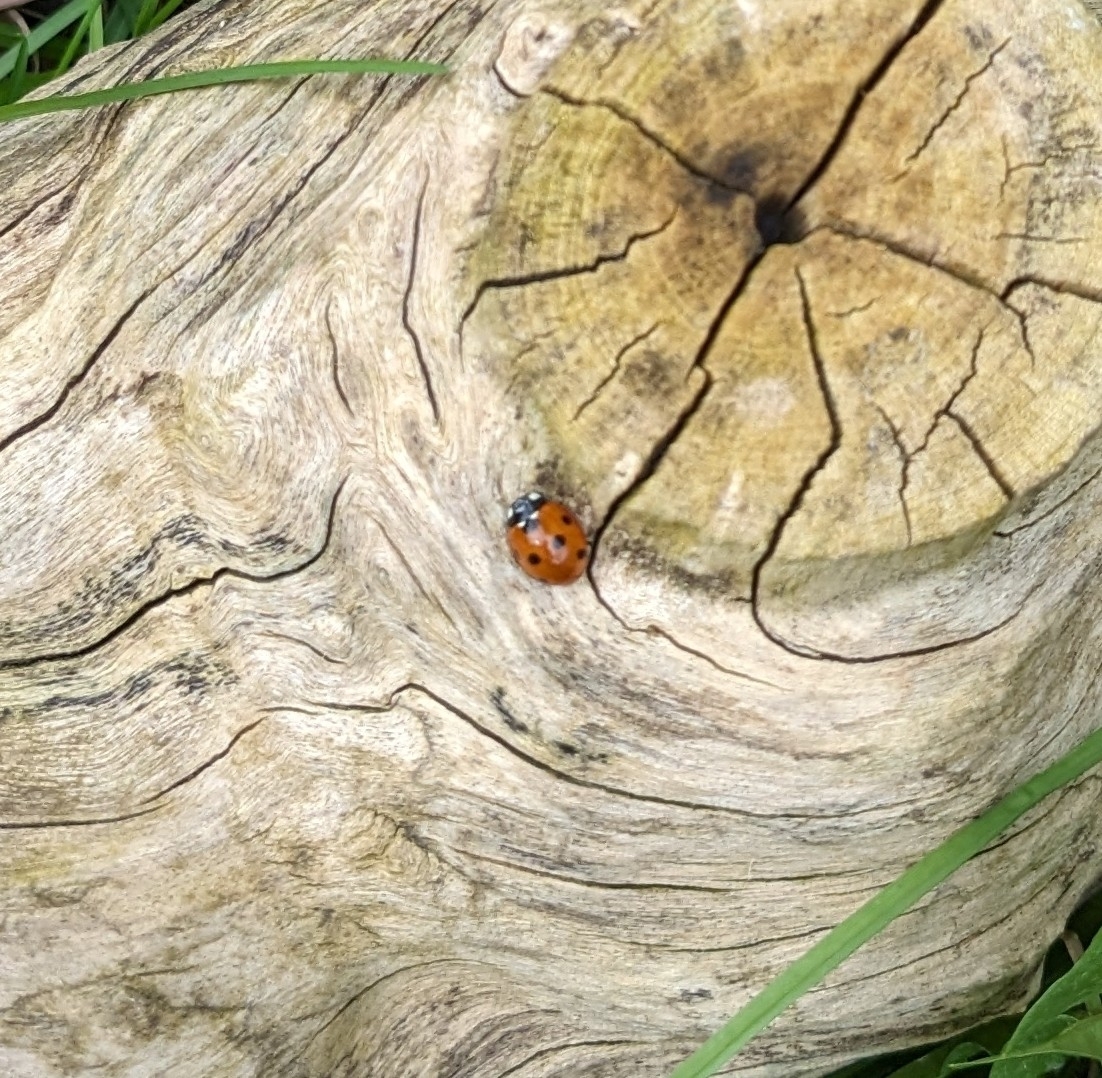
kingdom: Animalia
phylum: Arthropoda
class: Insecta
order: Coleoptera
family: Coccinellidae
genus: Coccinella
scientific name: Coccinella septempunctata
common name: Sevenspotted lady beetle
